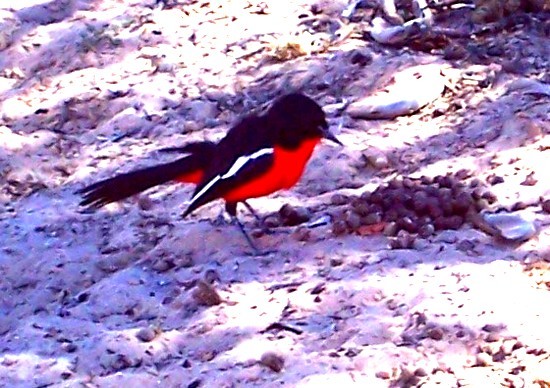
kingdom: Animalia
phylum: Chordata
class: Aves
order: Passeriformes
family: Malaconotidae
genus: Laniarius
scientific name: Laniarius atrococcineus
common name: Crimson-breasted shrike
